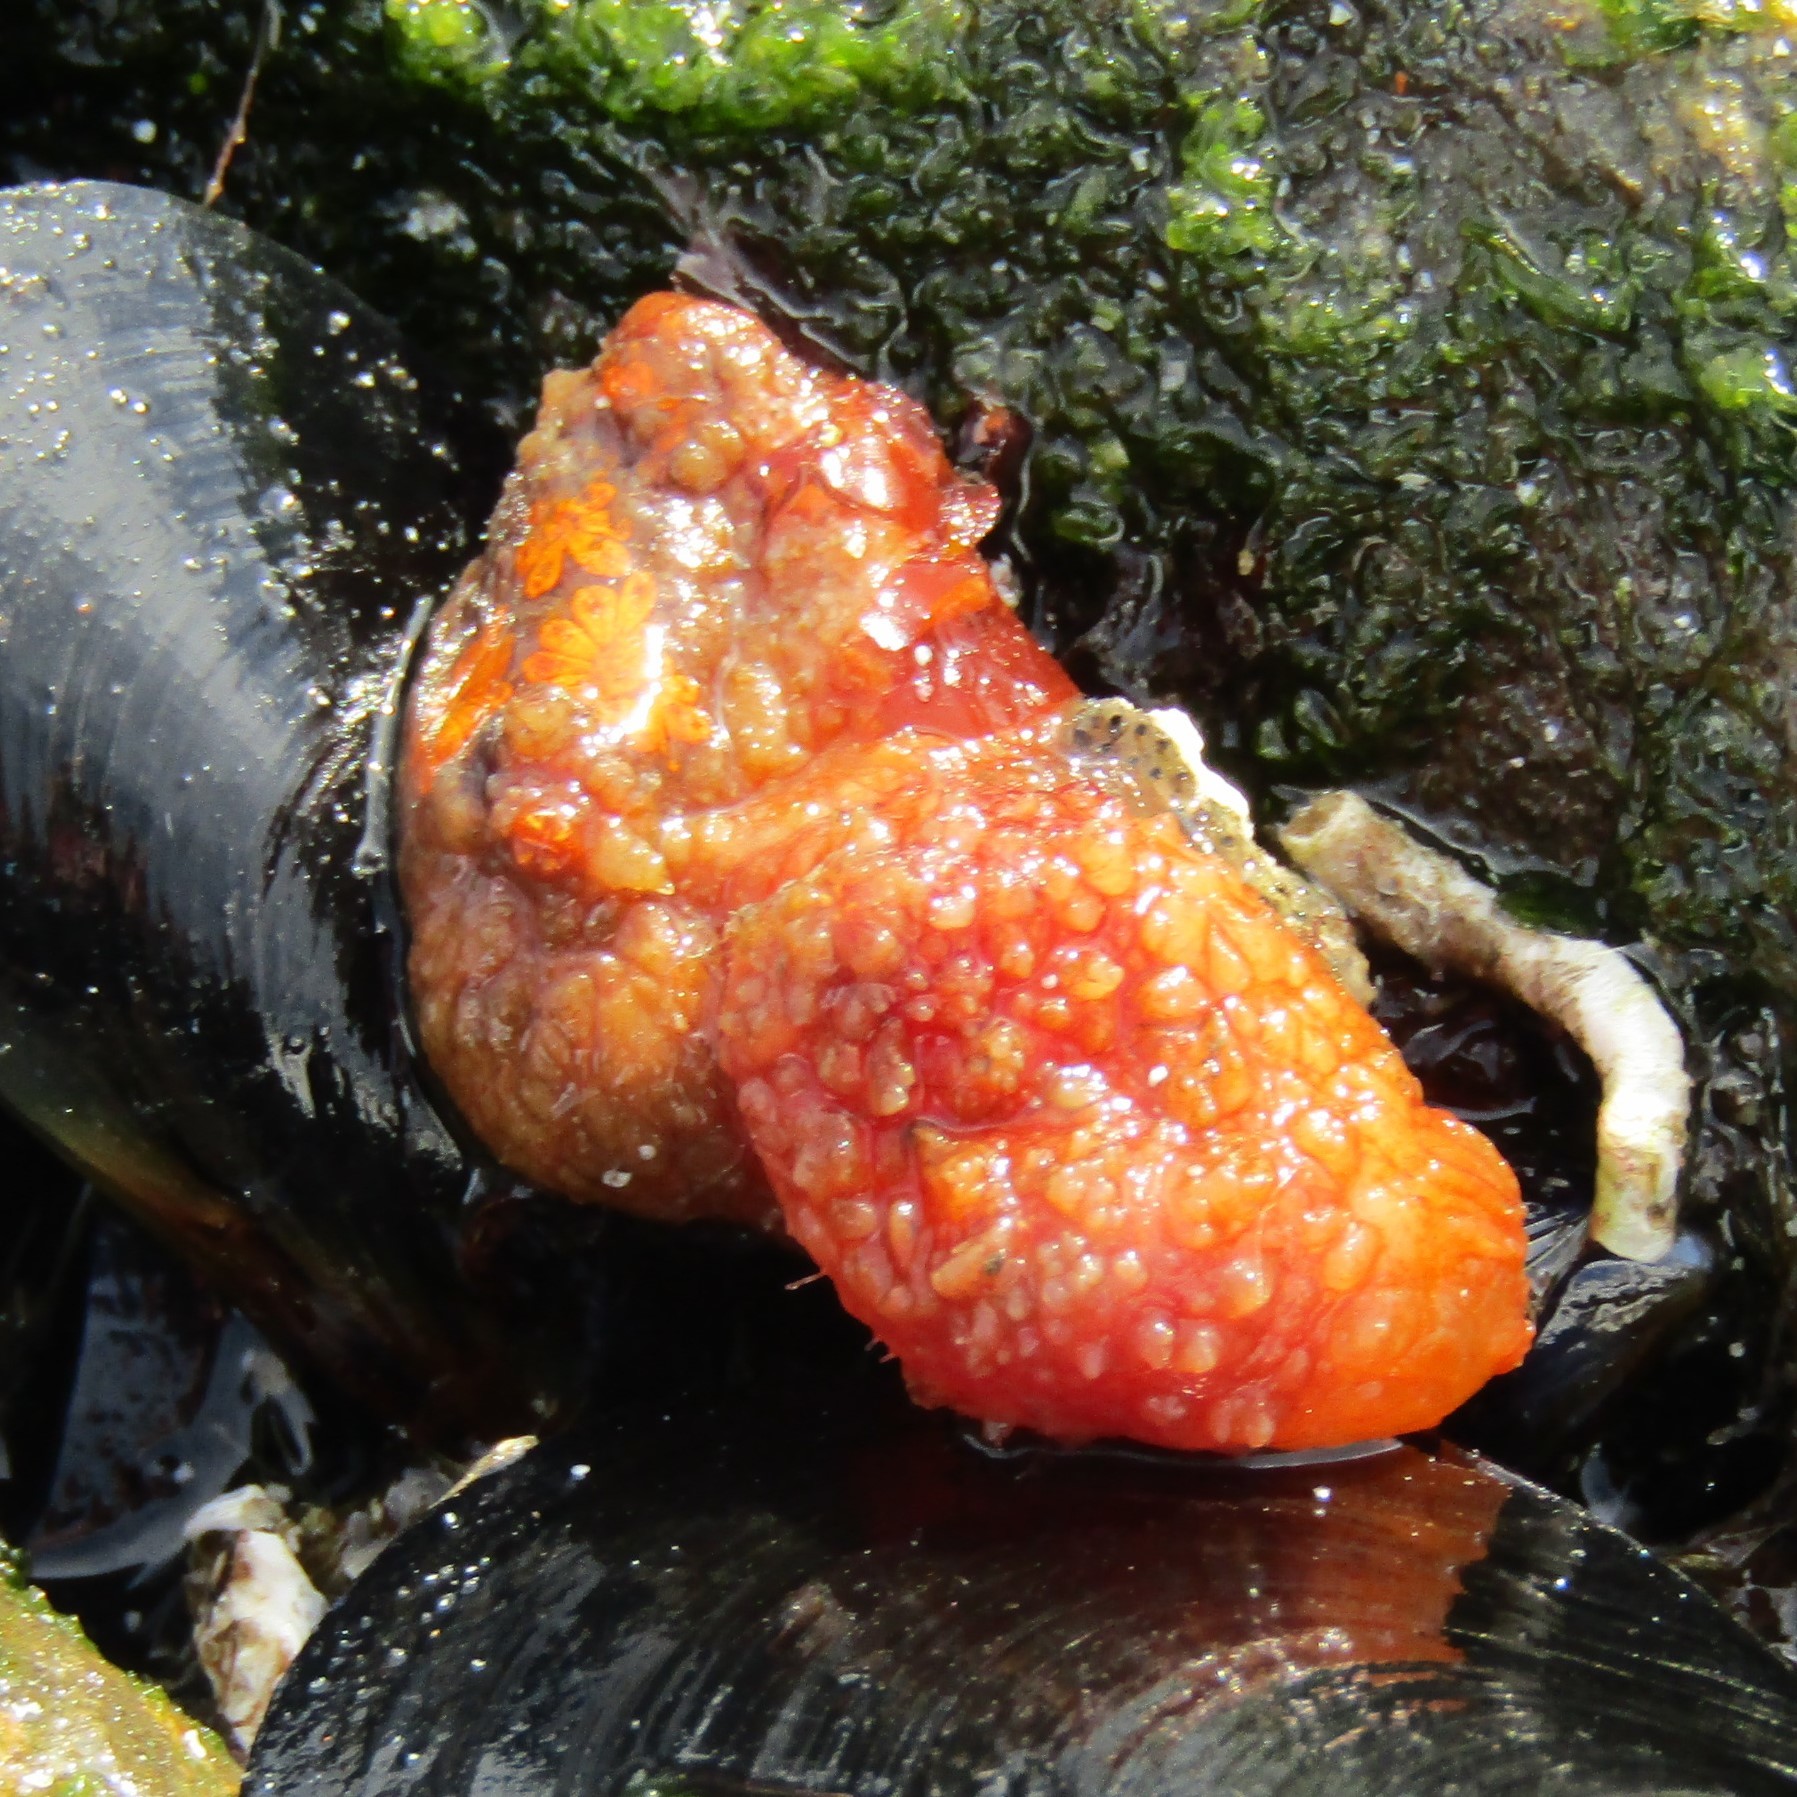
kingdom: Animalia
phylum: Chordata
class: Ascidiacea
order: Stolidobranchia
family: Styelidae
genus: Botryllus
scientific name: Botryllus schlosseri
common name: Golden star tunicate
